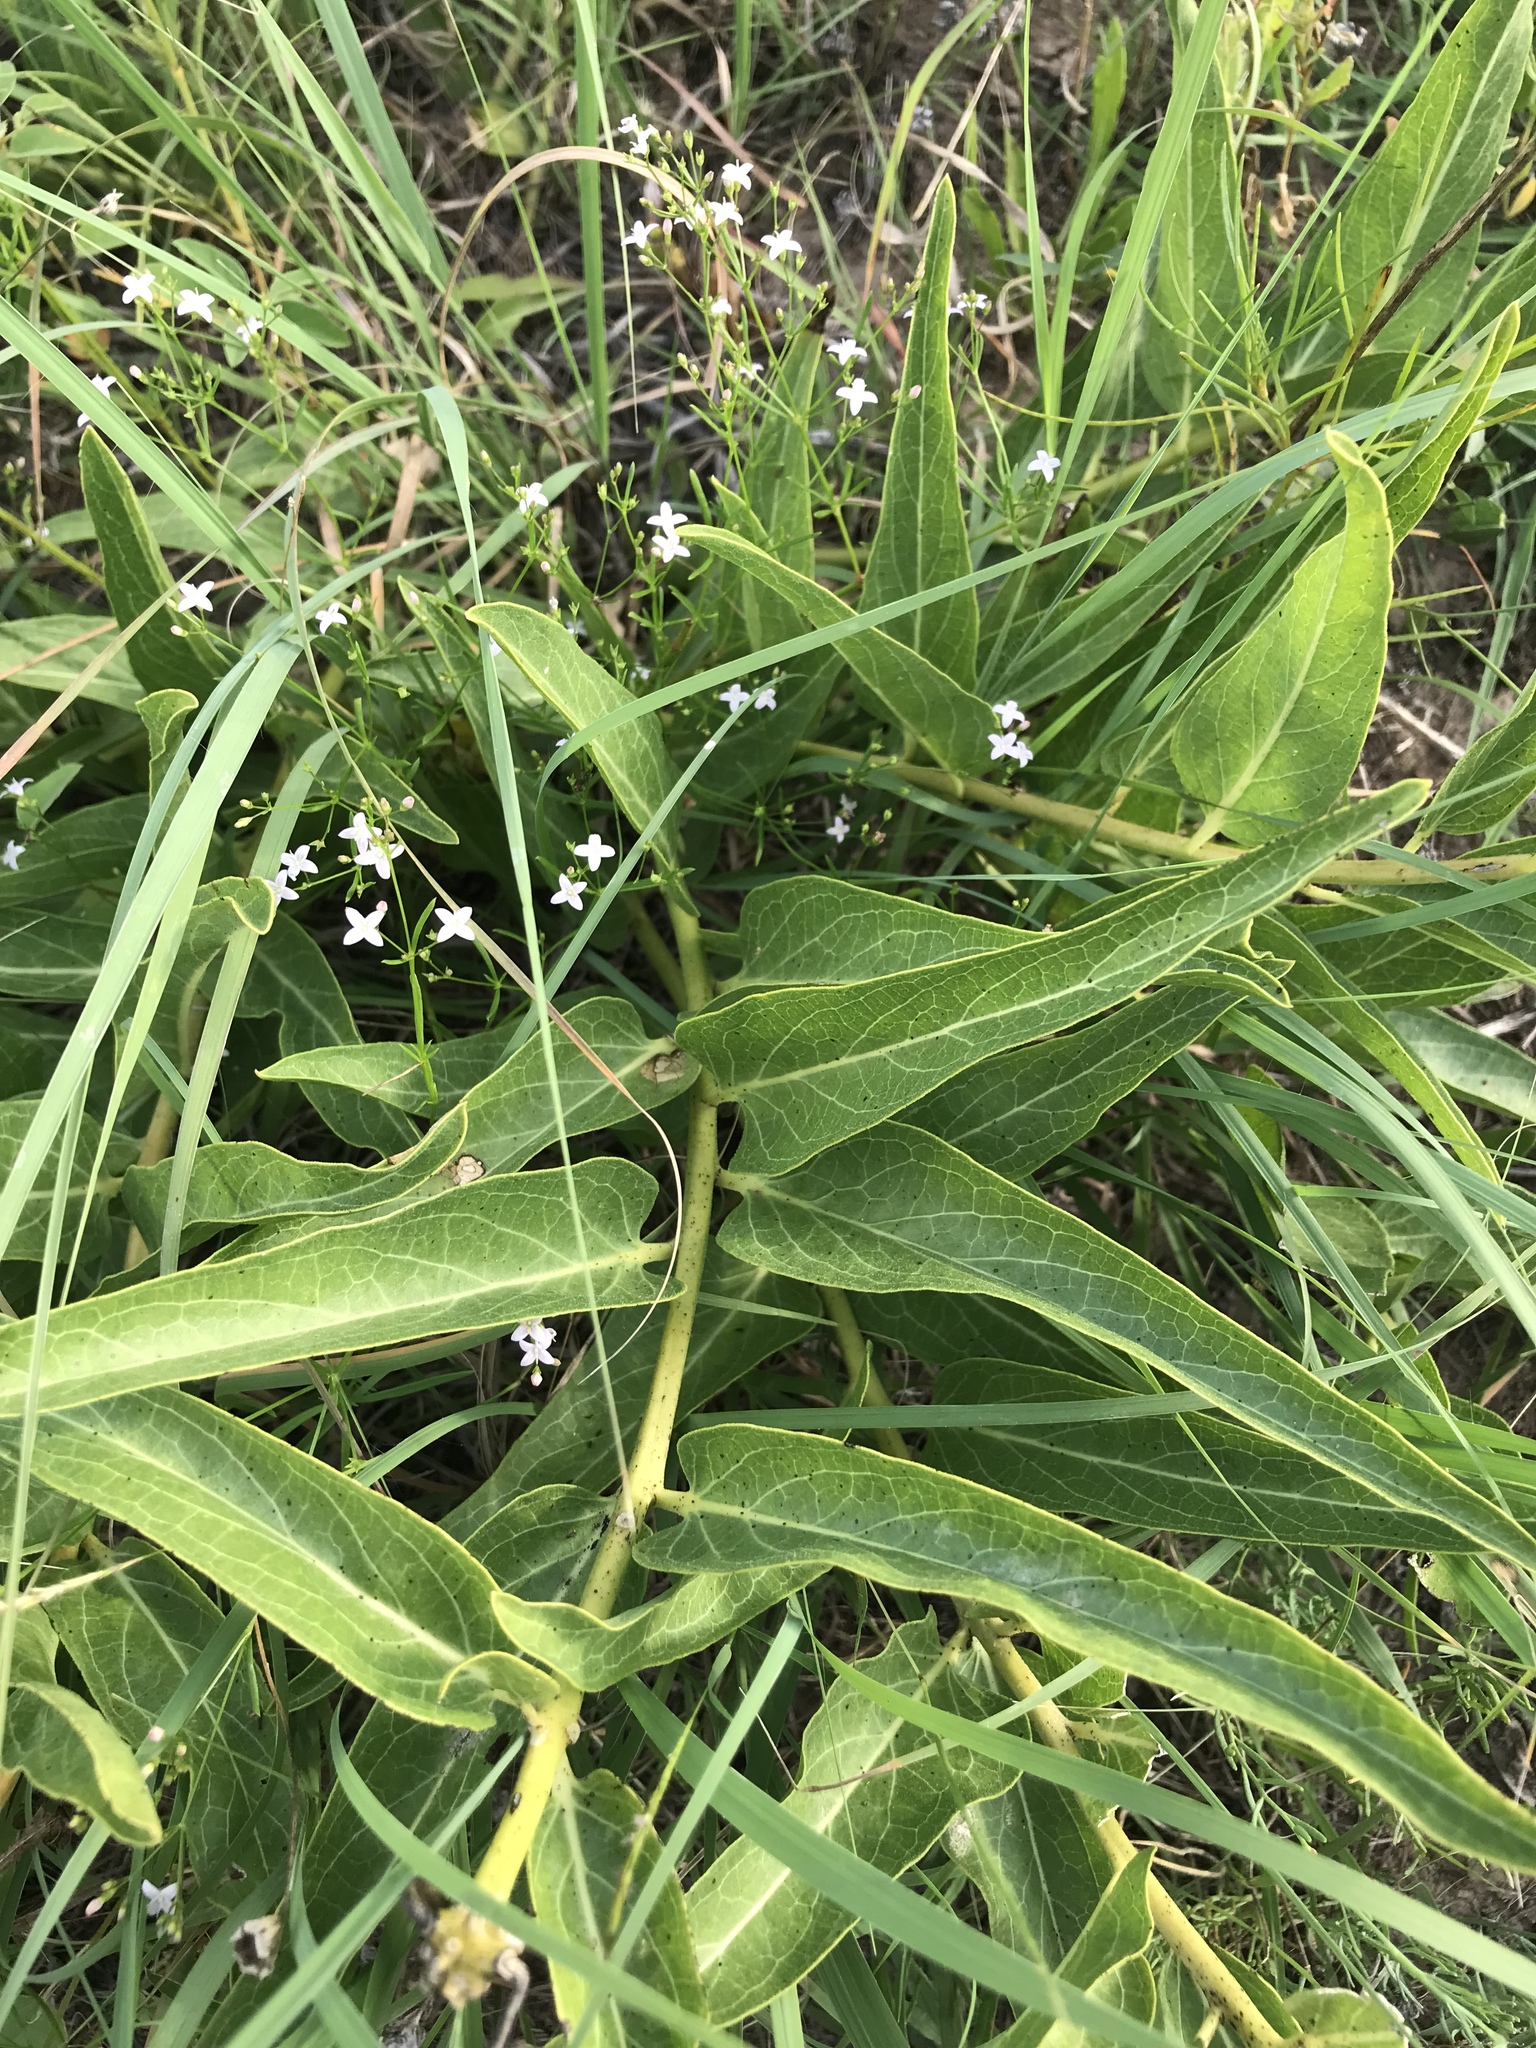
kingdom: Plantae
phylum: Tracheophyta
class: Magnoliopsida
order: Gentianales
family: Apocynaceae
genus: Asclepias
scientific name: Asclepias asperula
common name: Antelope horns
